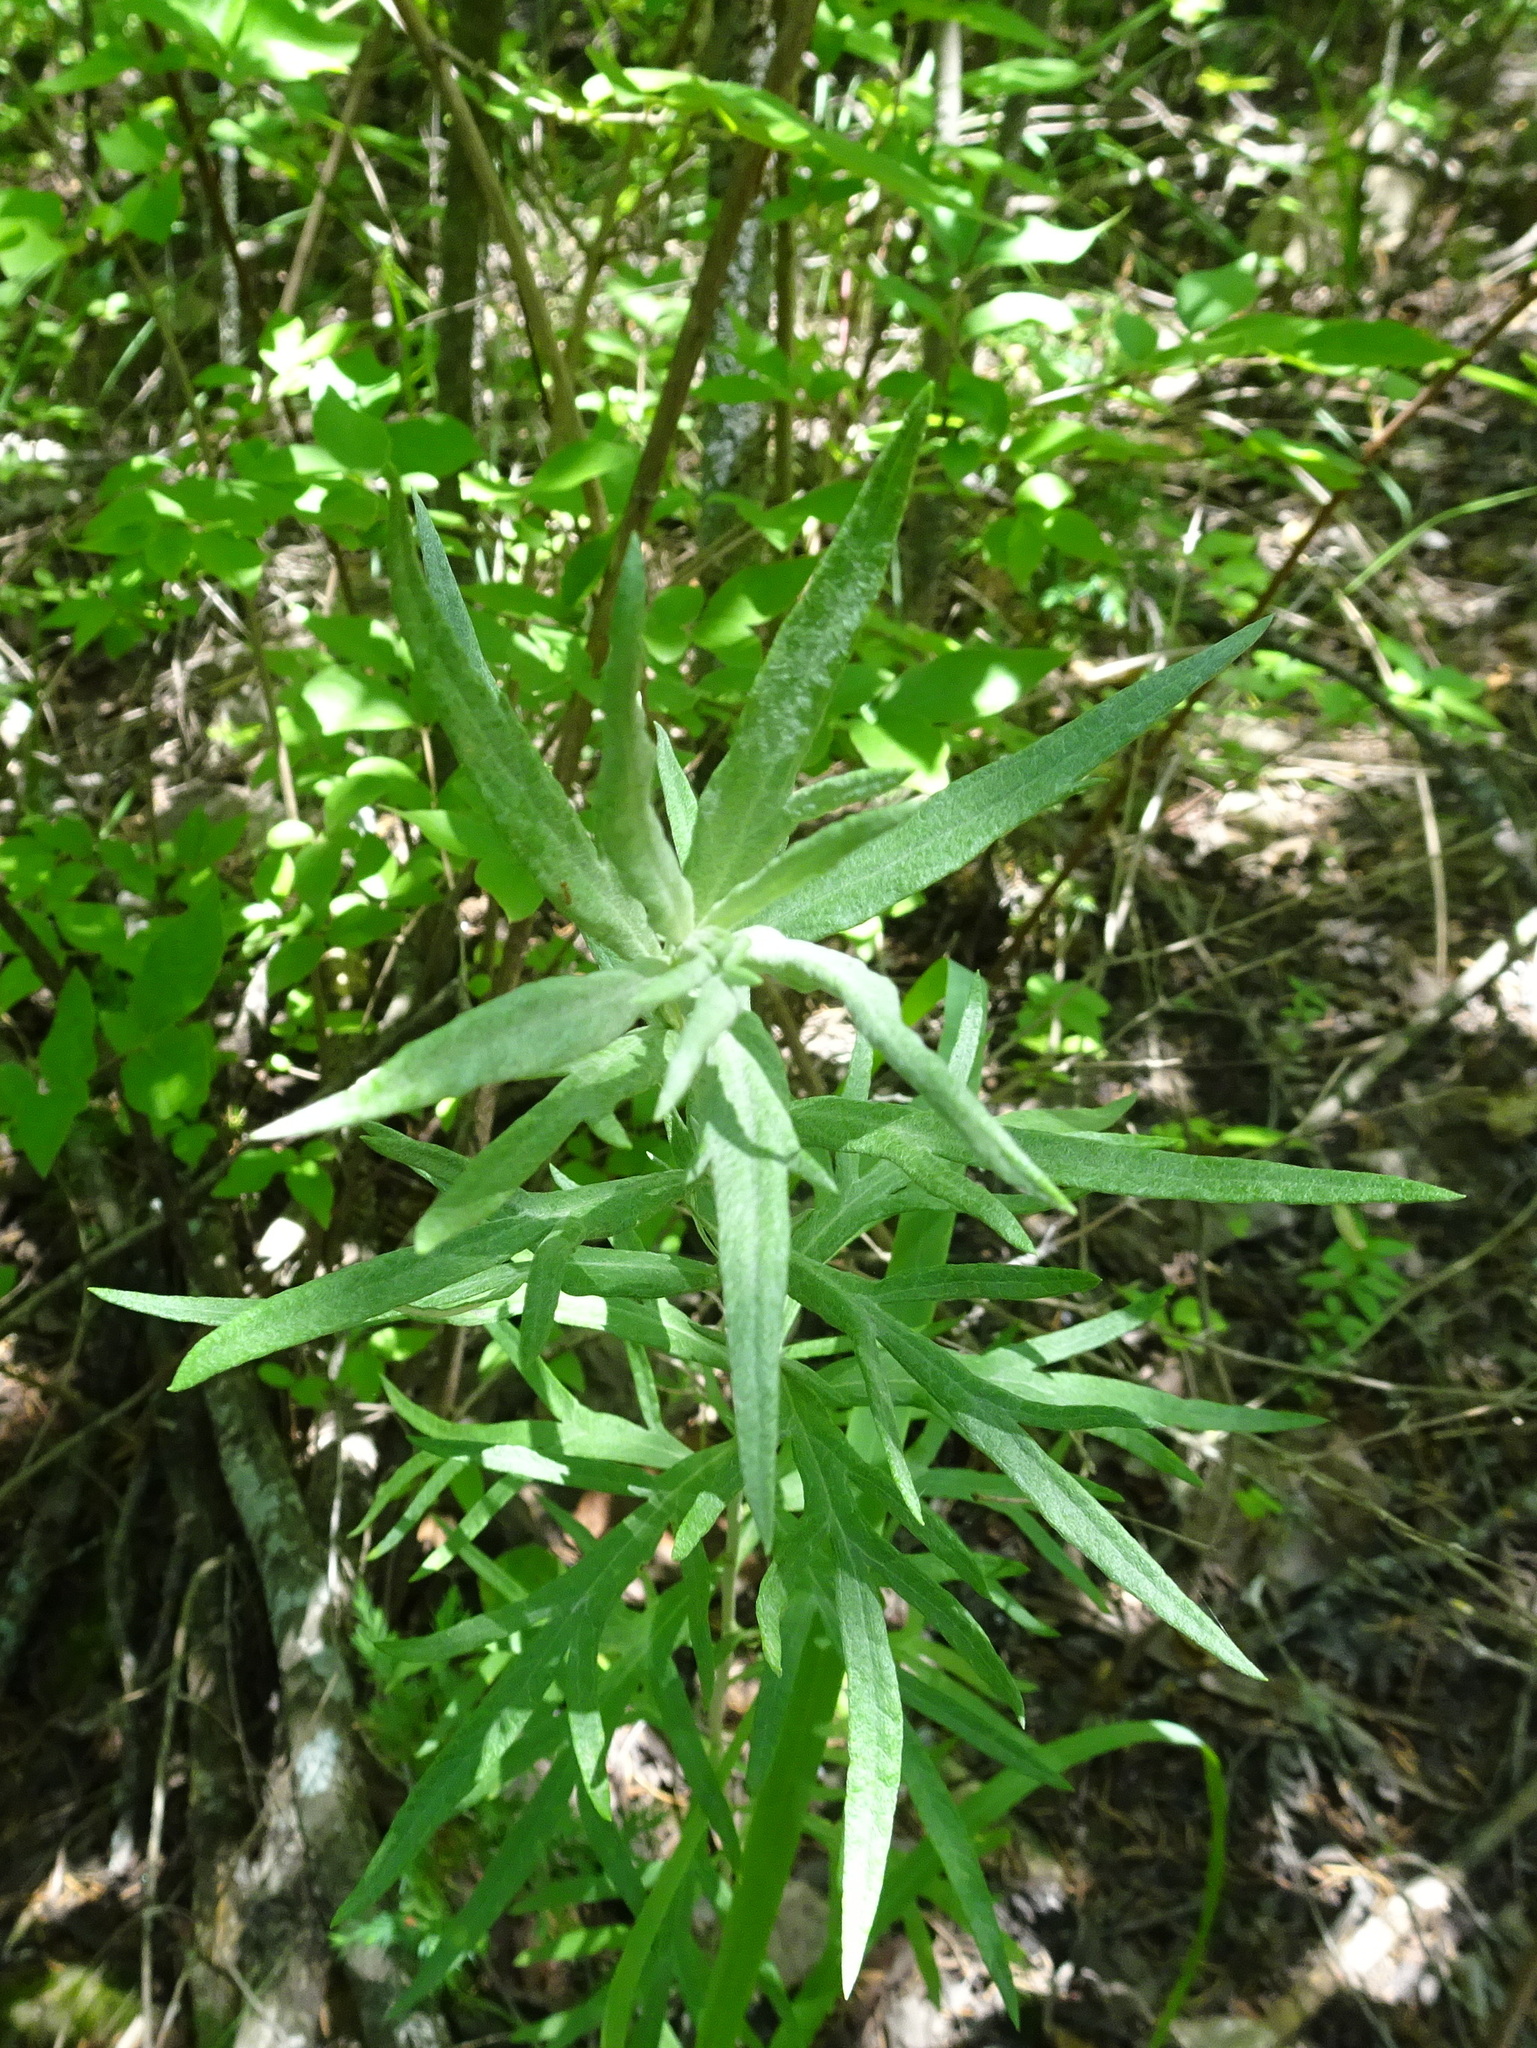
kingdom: Plantae
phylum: Tracheophyta
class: Magnoliopsida
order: Asterales
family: Asteraceae
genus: Artemisia
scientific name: Artemisia ludoviciana
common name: Western mugwort
